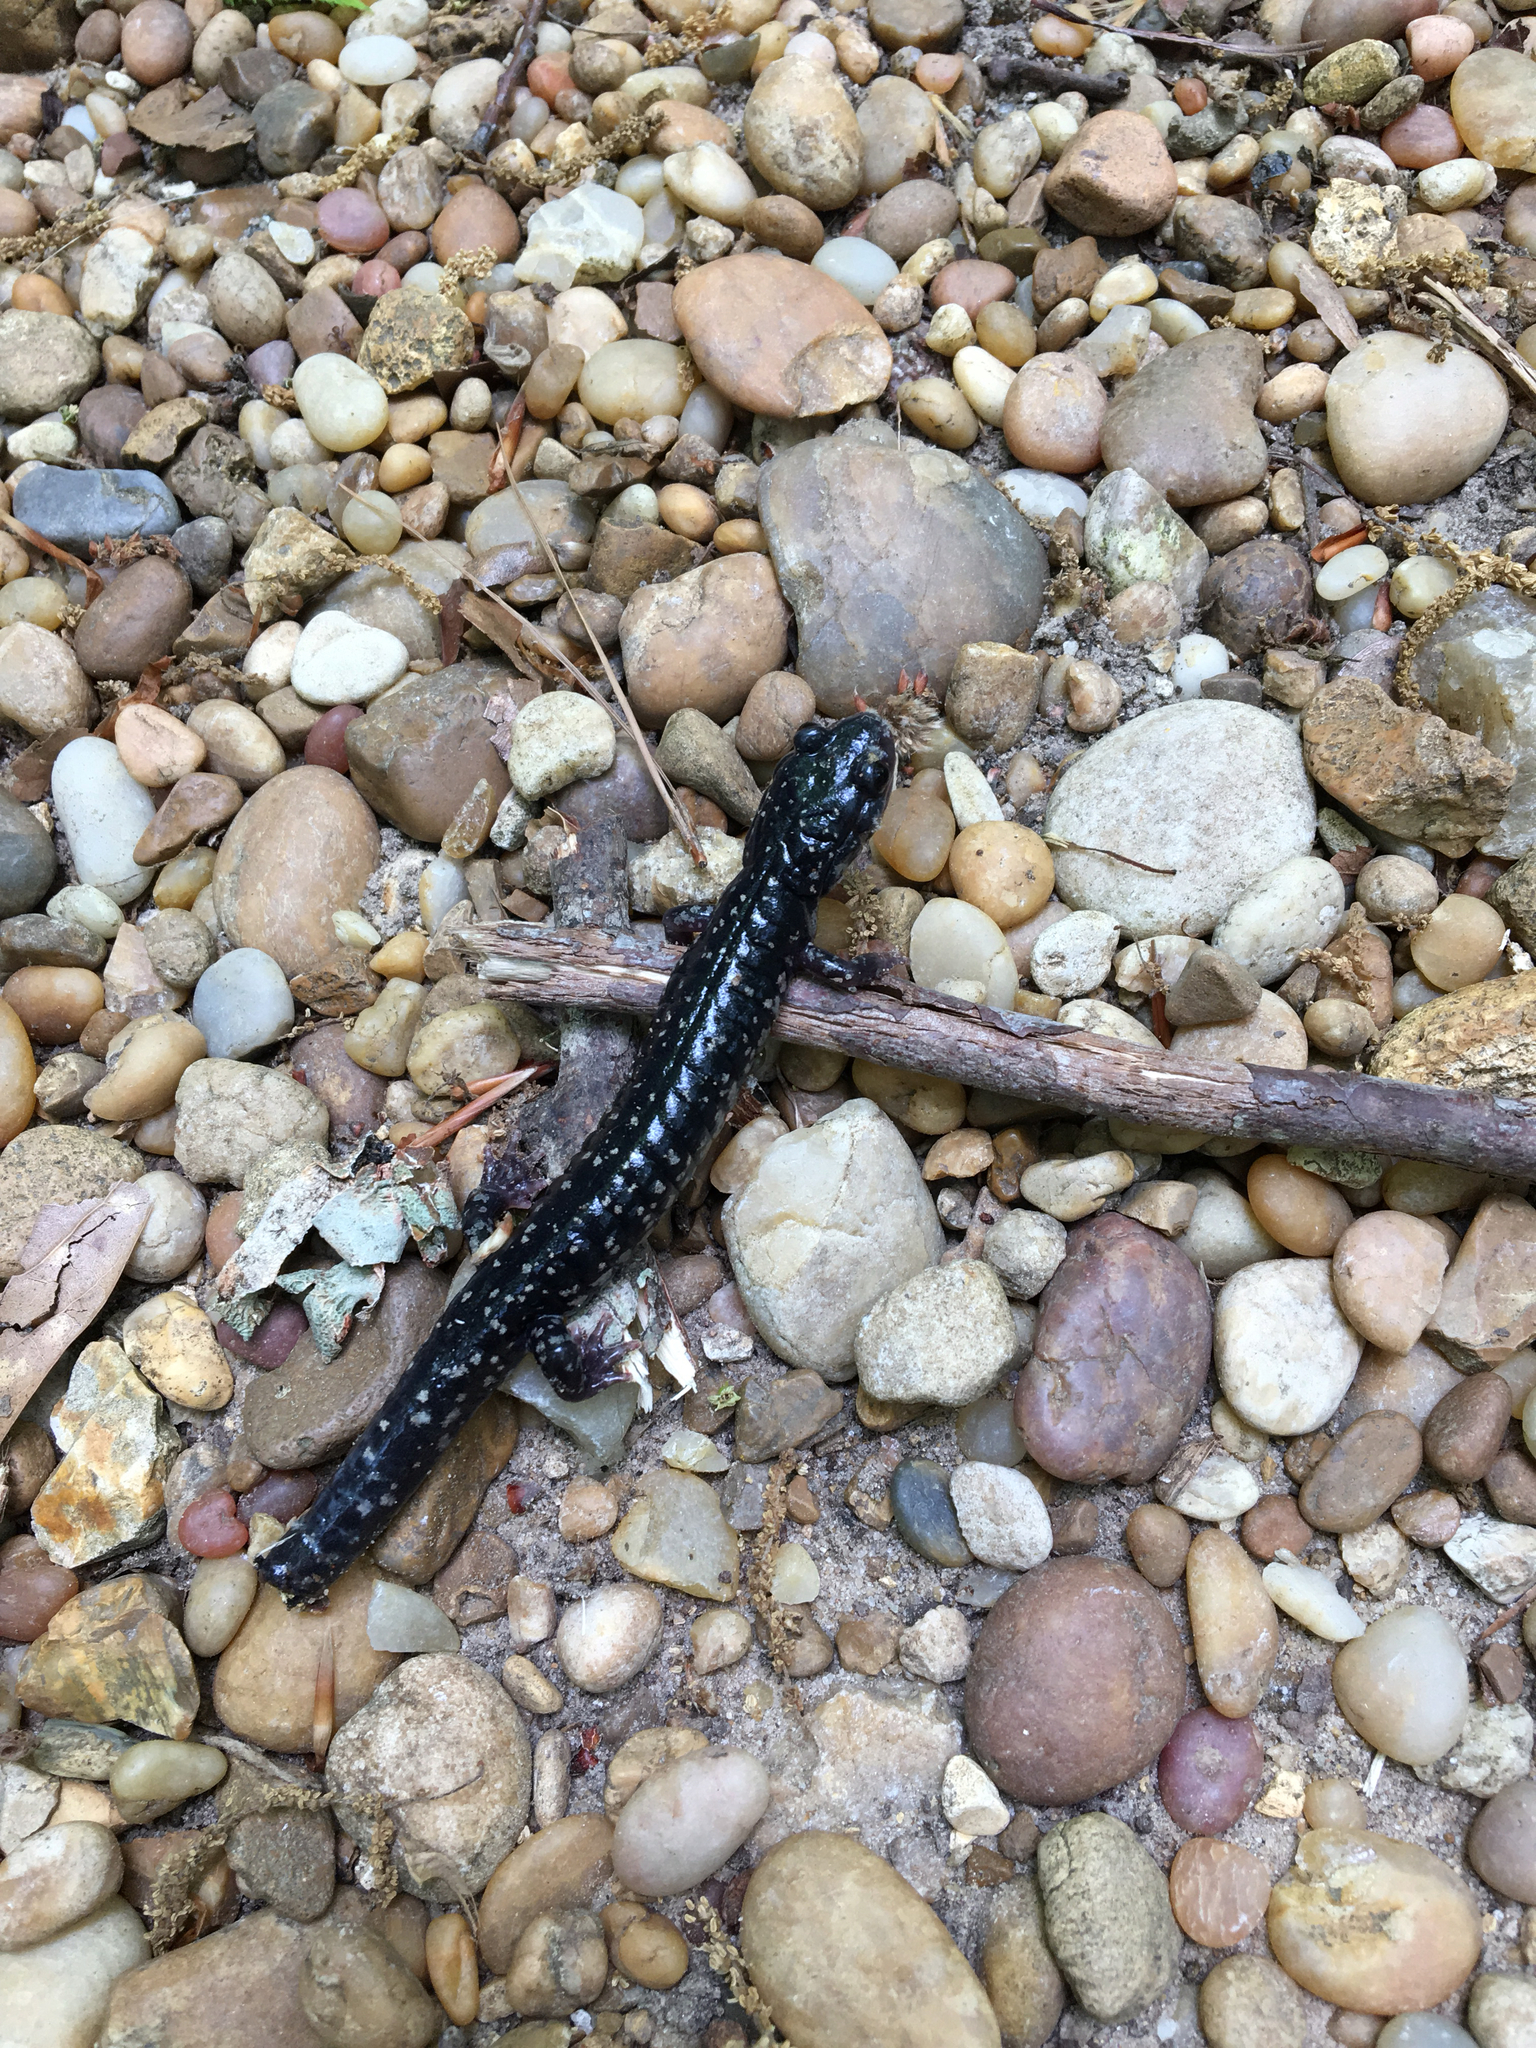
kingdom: Animalia
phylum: Chordata
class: Amphibia
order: Caudata
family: Plethodontidae
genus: Plethodon
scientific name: Plethodon mississippi
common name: Mississippi slimy salamander
